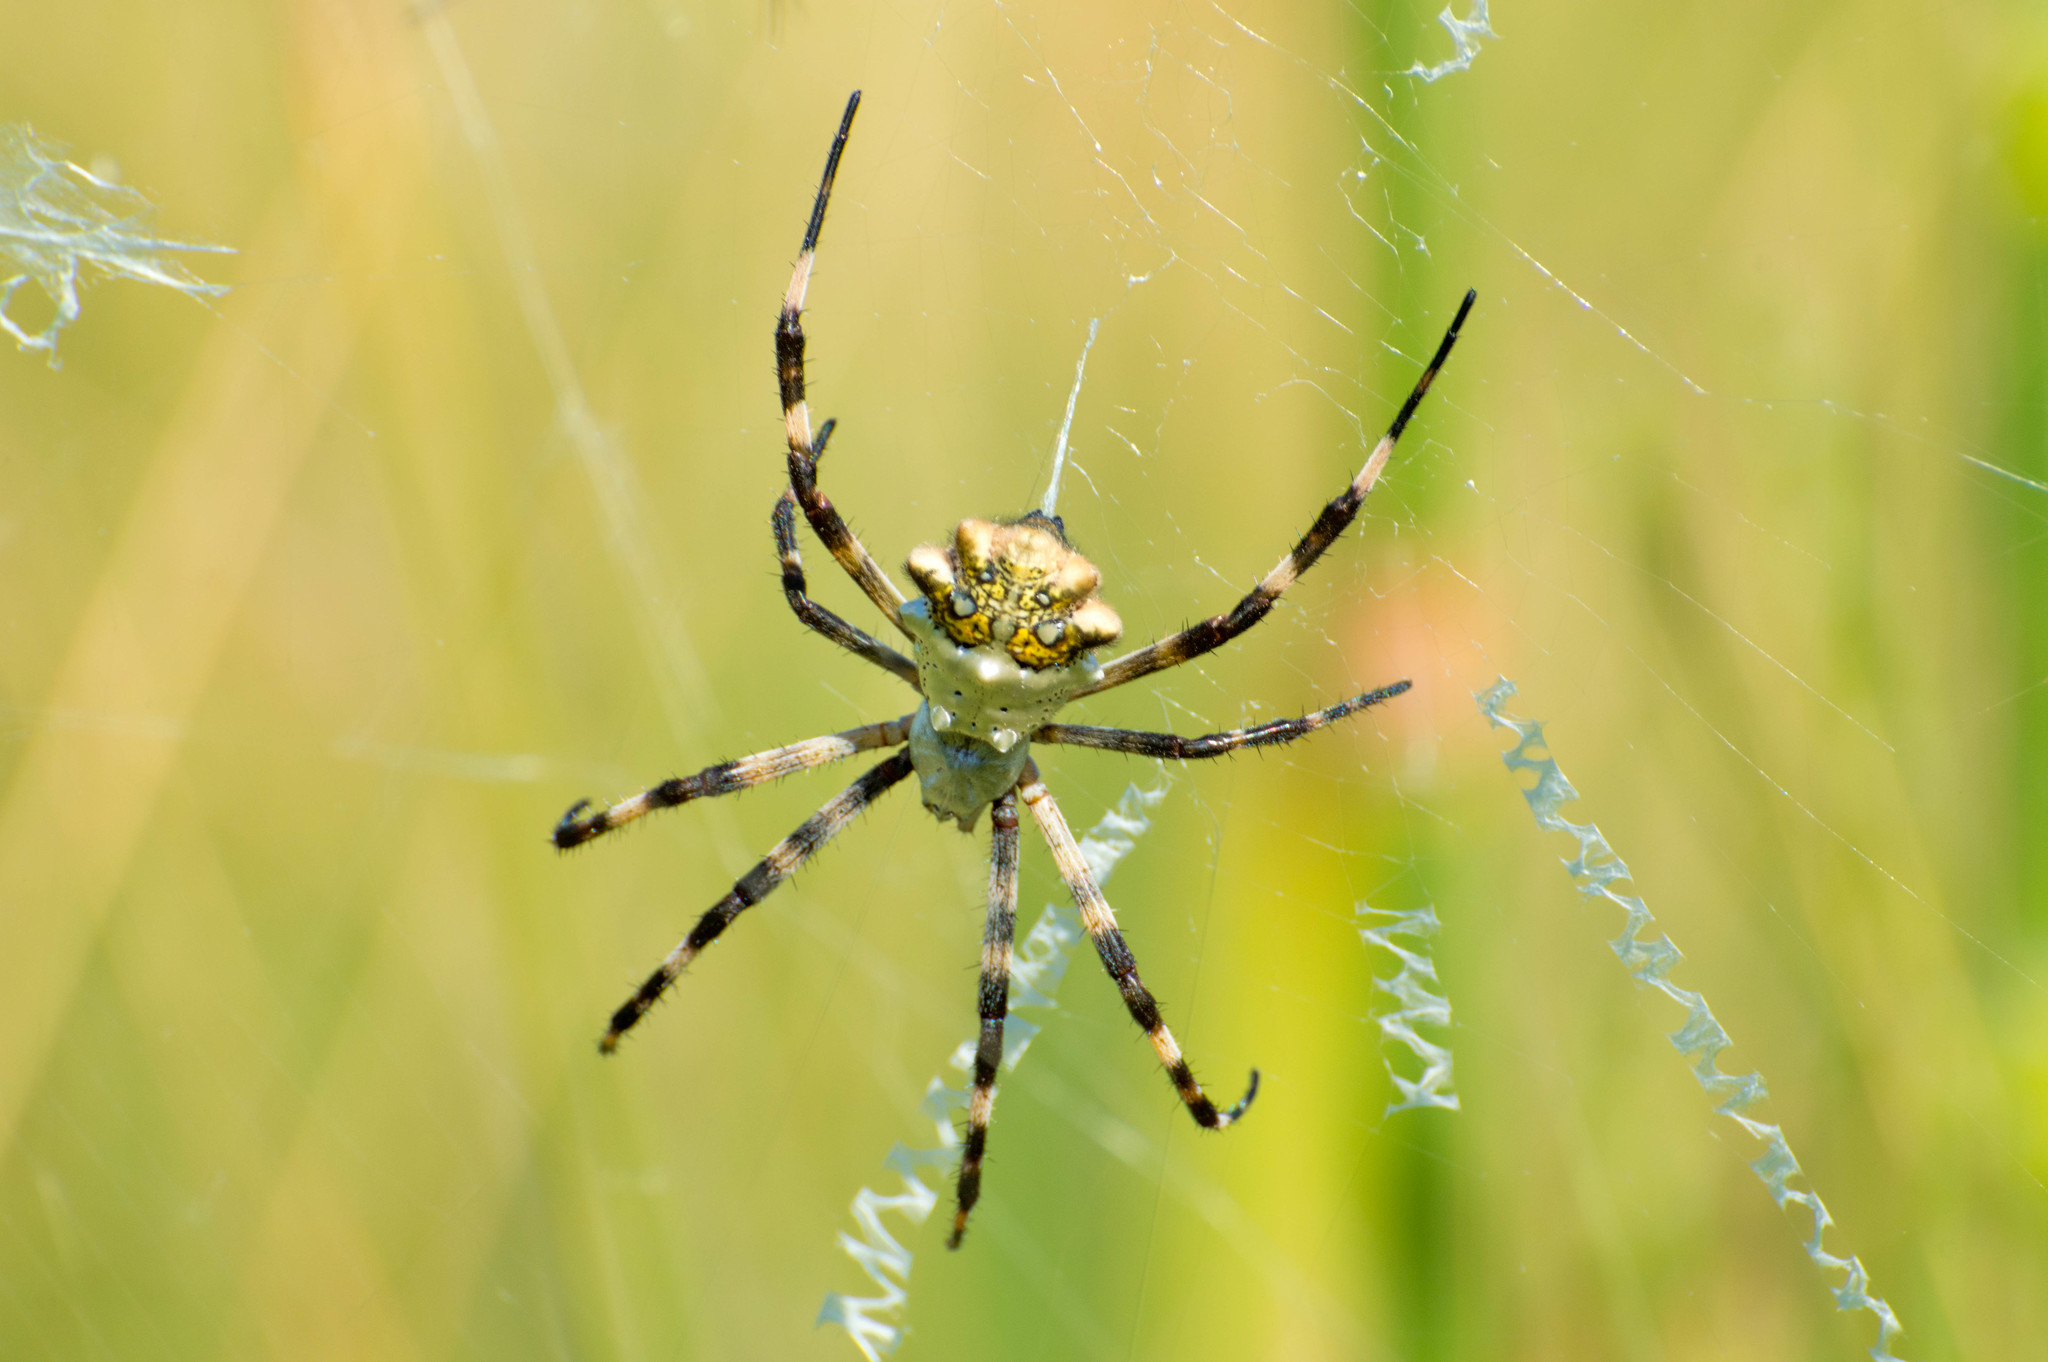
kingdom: Animalia
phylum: Arthropoda
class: Arachnida
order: Araneae
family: Araneidae
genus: Argiope
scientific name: Argiope argentata
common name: Orb weavers
